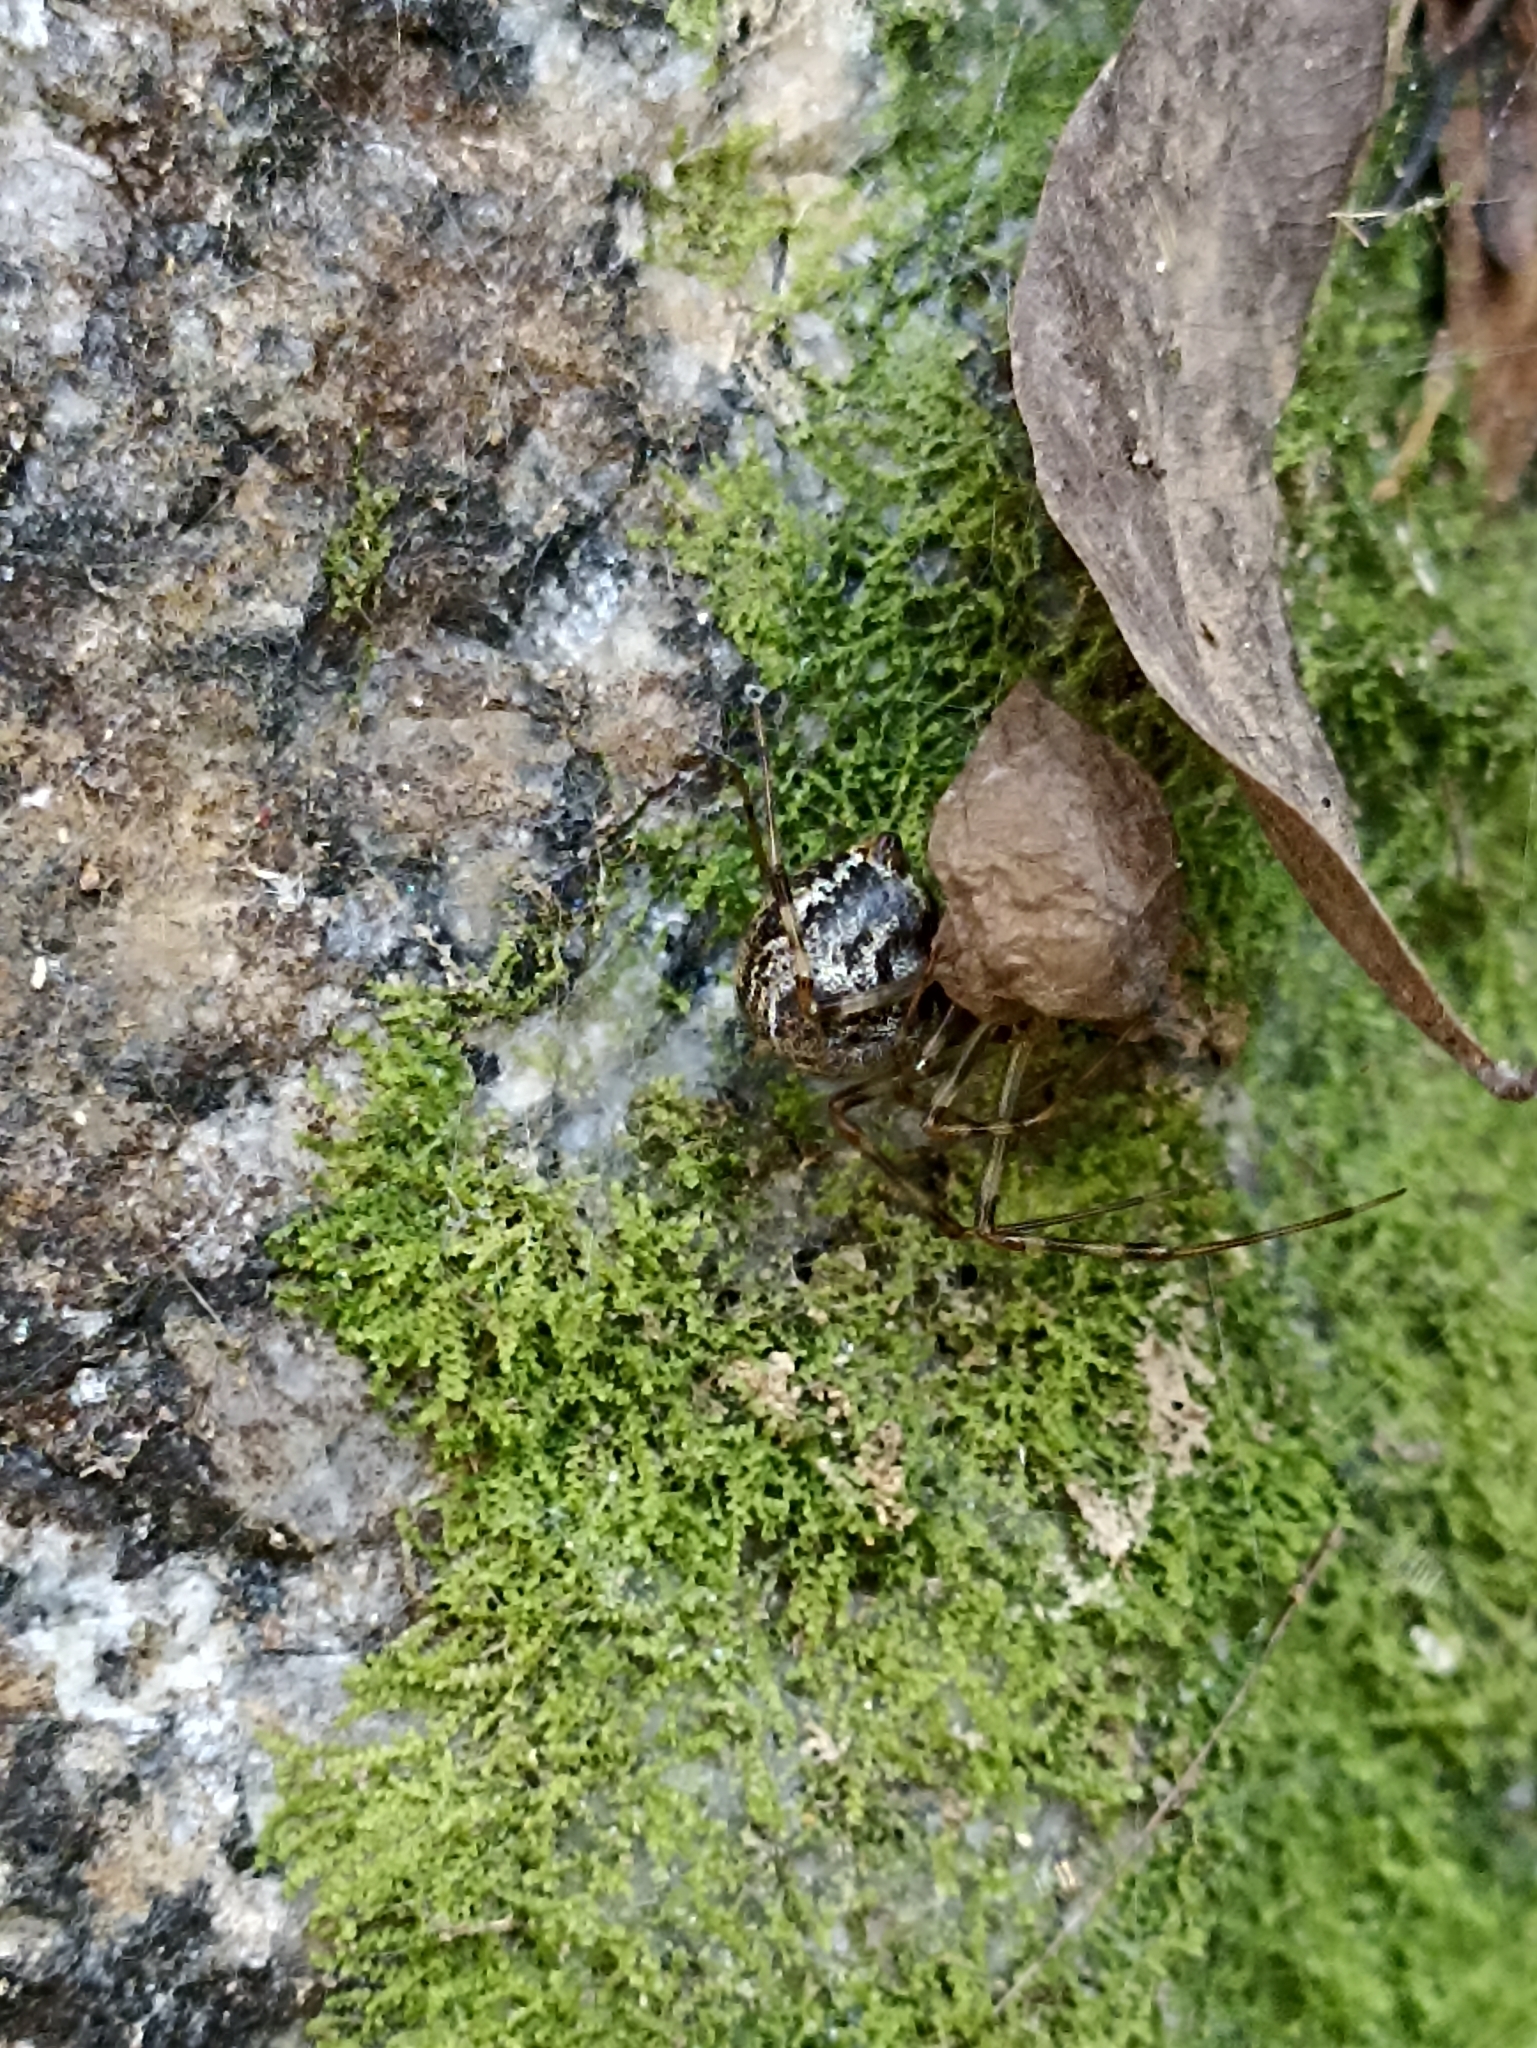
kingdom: Animalia
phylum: Arthropoda
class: Arachnida
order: Araneae
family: Theridiidae
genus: Parasteatoda
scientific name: Parasteatoda tepidariorum
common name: Common house spider
